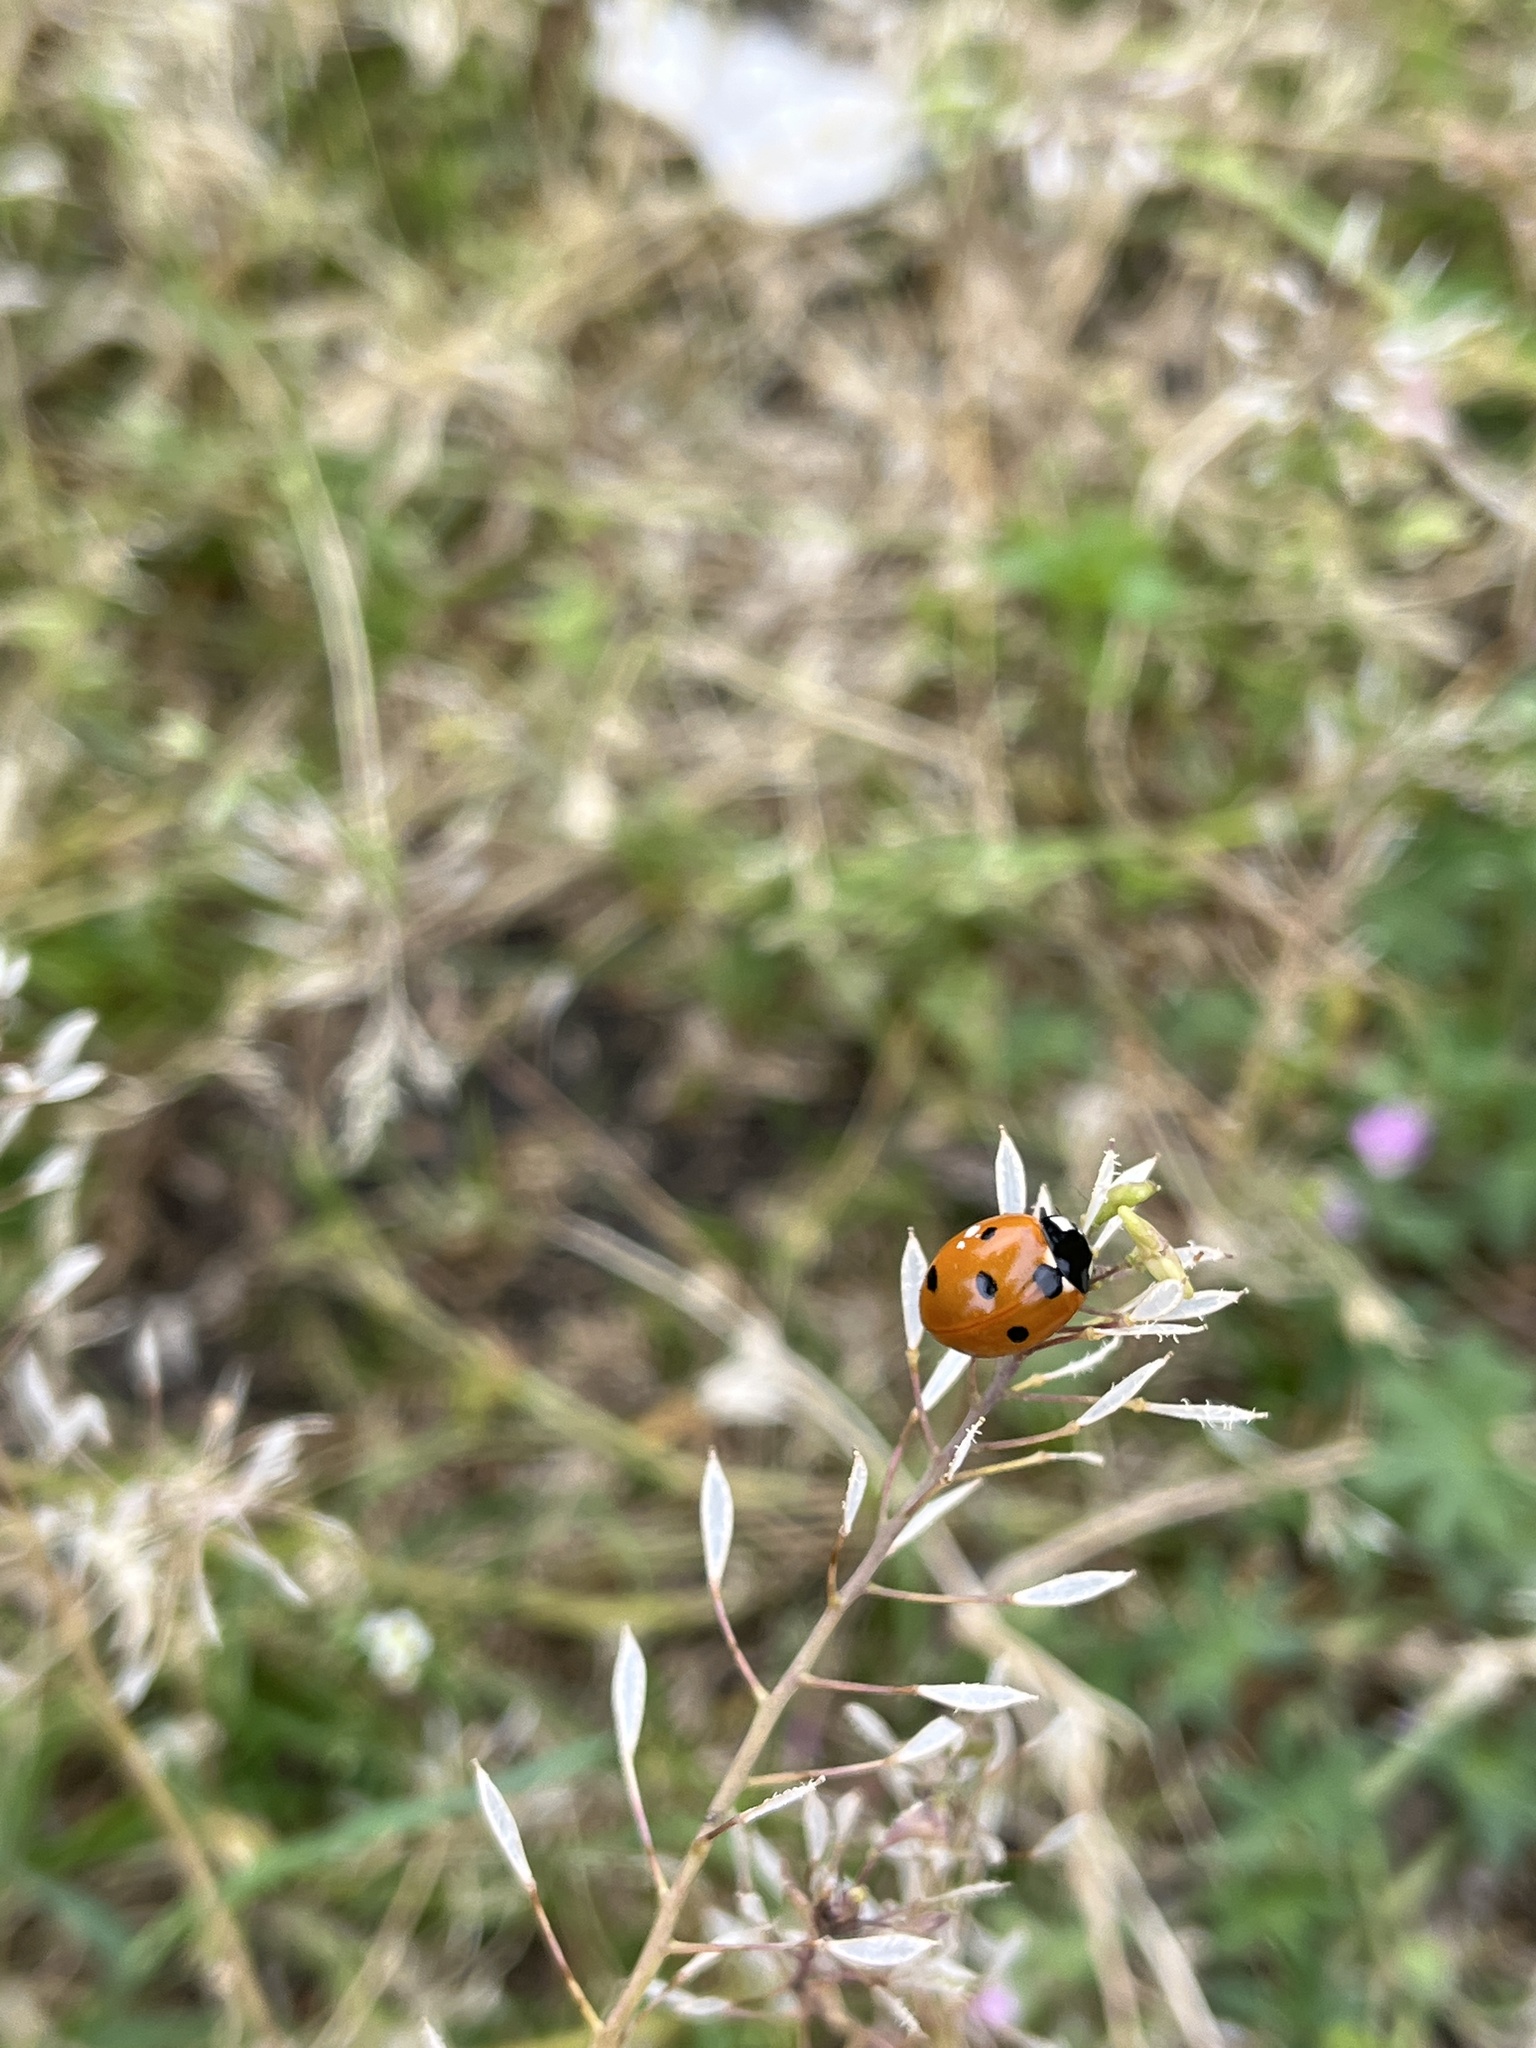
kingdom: Animalia
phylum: Arthropoda
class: Insecta
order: Coleoptera
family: Coccinellidae
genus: Coccinella
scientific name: Coccinella septempunctata
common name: Sevenspotted lady beetle
